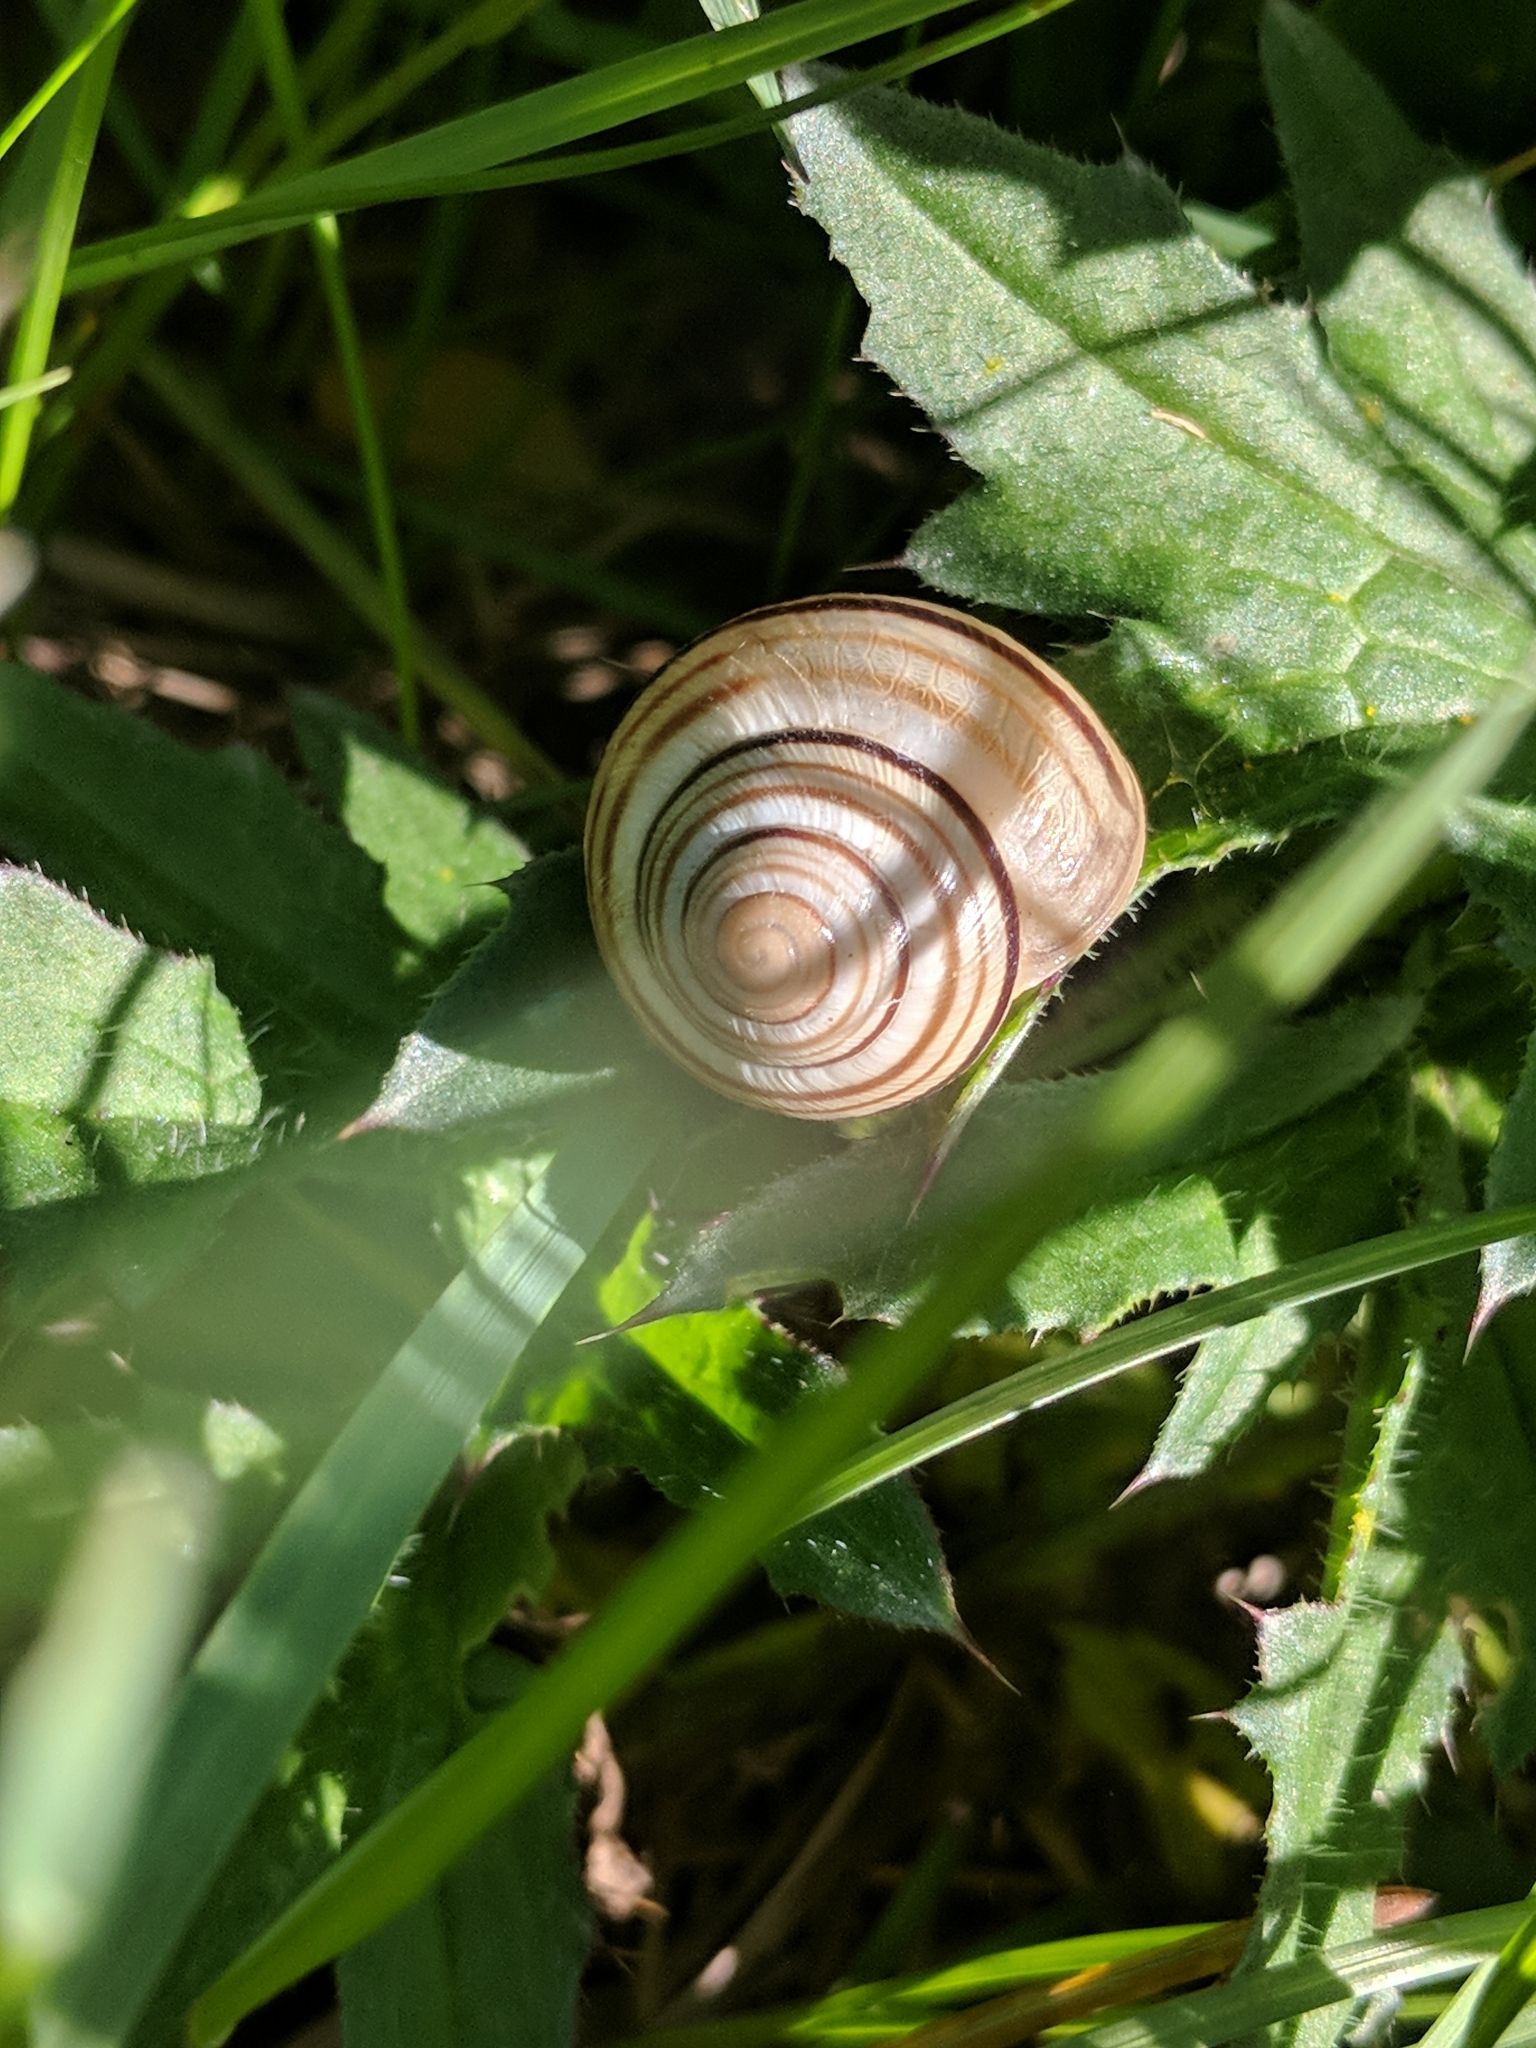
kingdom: Animalia
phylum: Mollusca
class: Gastropoda
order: Stylommatophora
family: Helicidae
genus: Caucasotachea
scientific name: Caucasotachea vindobonensis
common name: European helicid land snail
